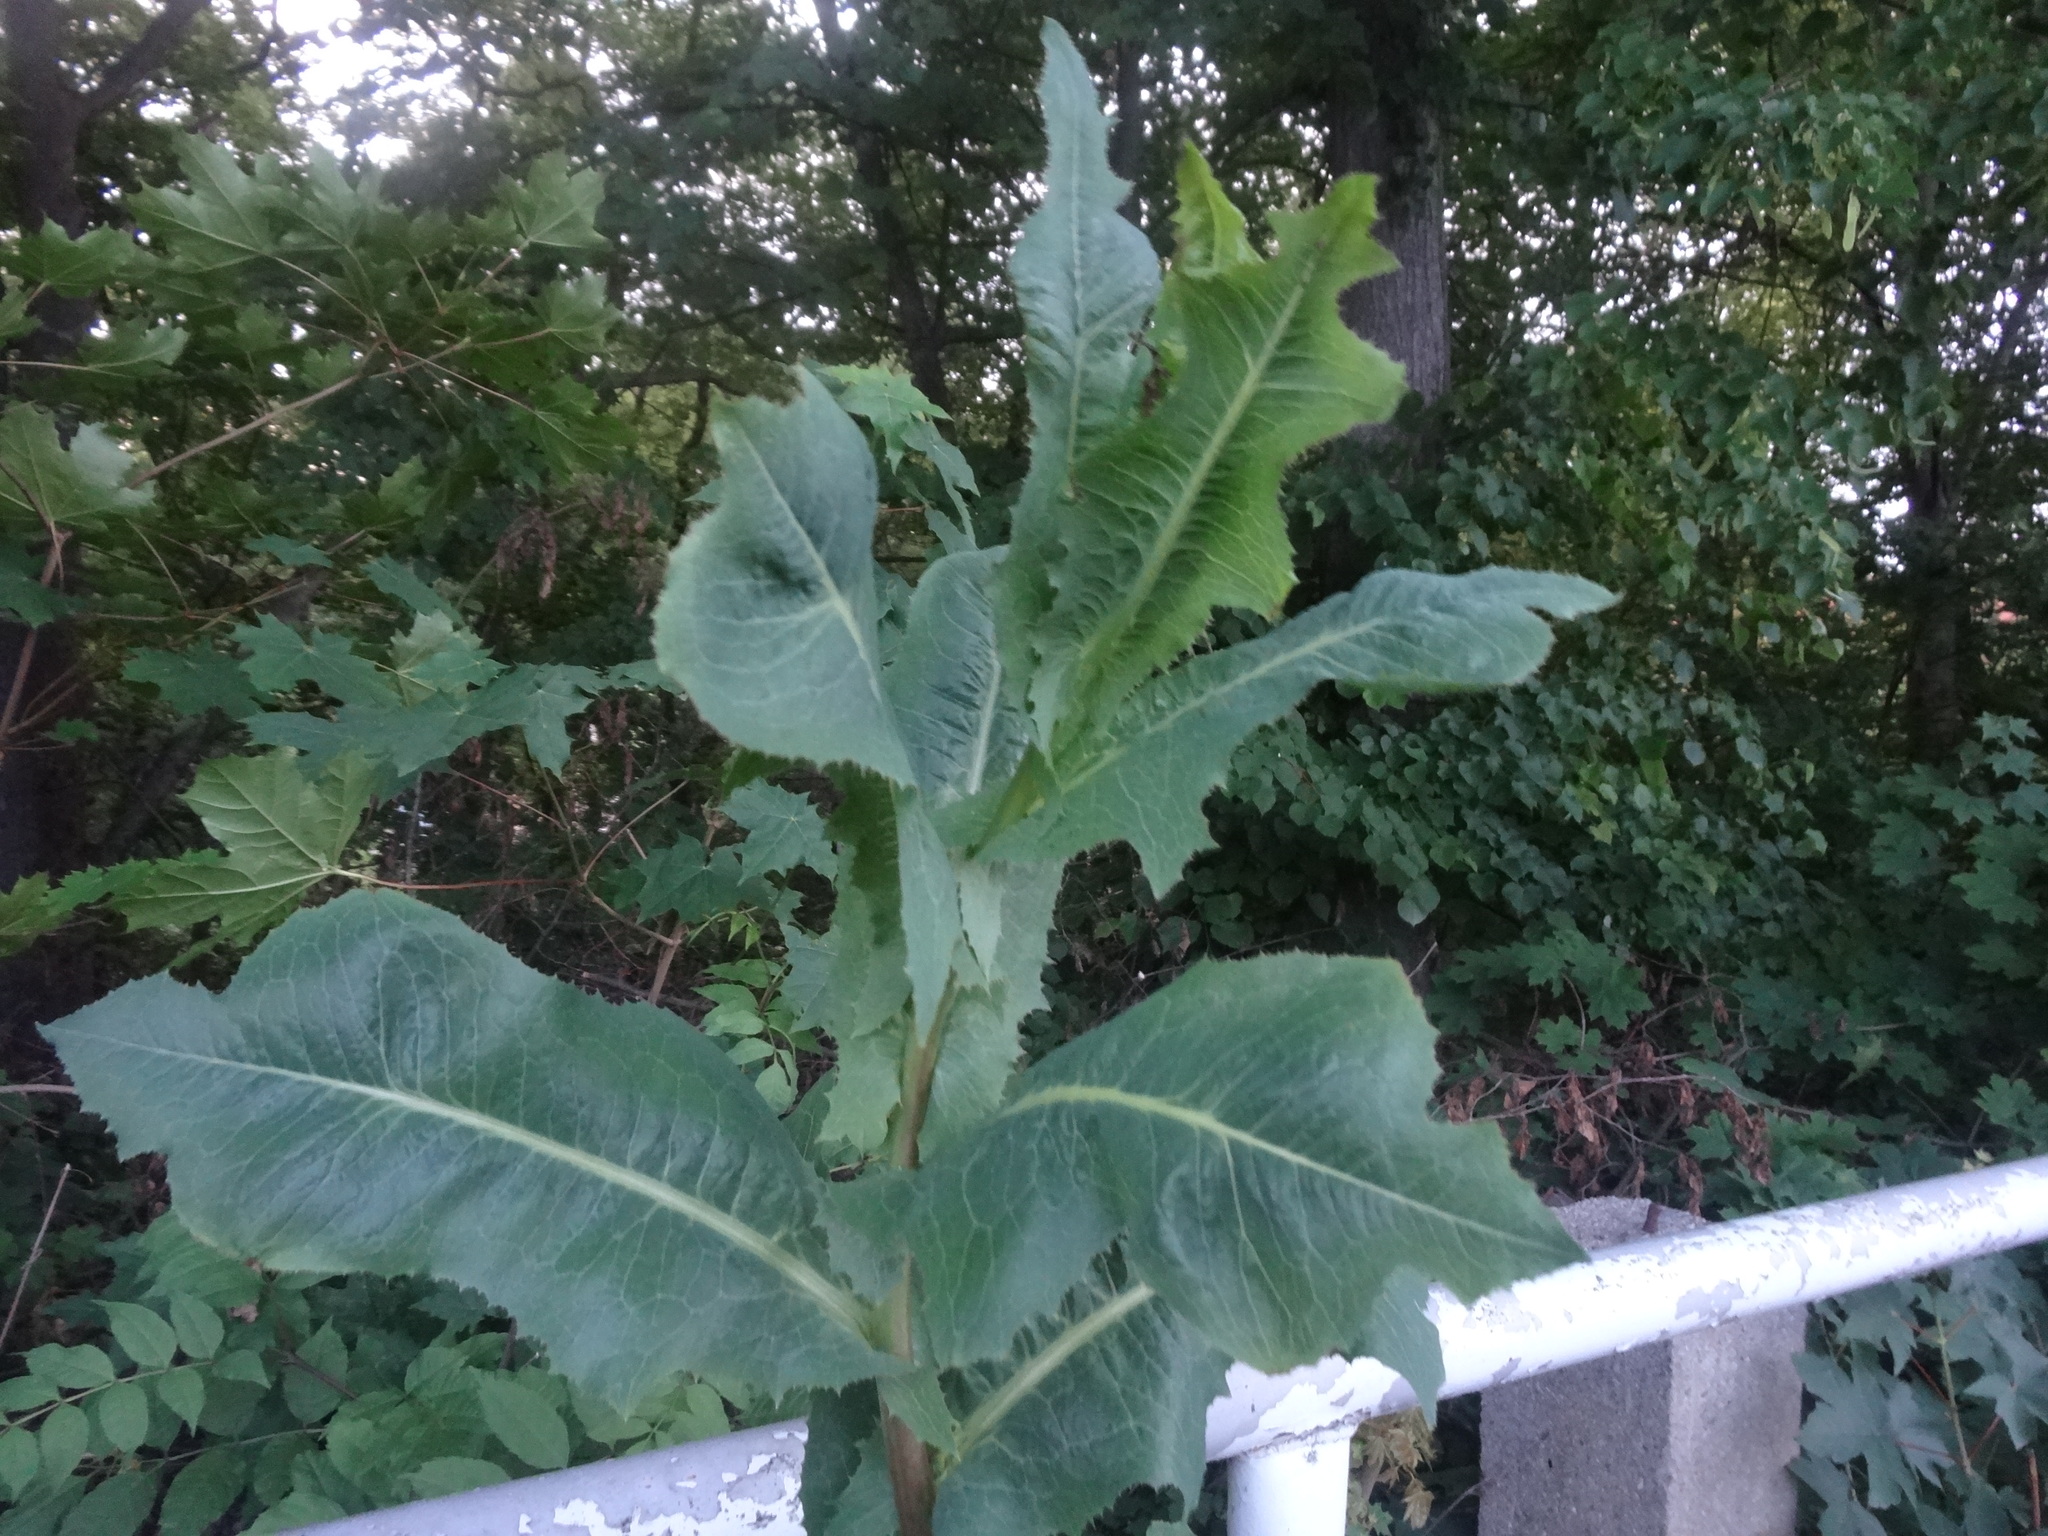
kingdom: Plantae
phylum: Tracheophyta
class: Magnoliopsida
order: Asterales
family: Asteraceae
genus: Lactuca
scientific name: Lactuca serriola
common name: Prickly lettuce
